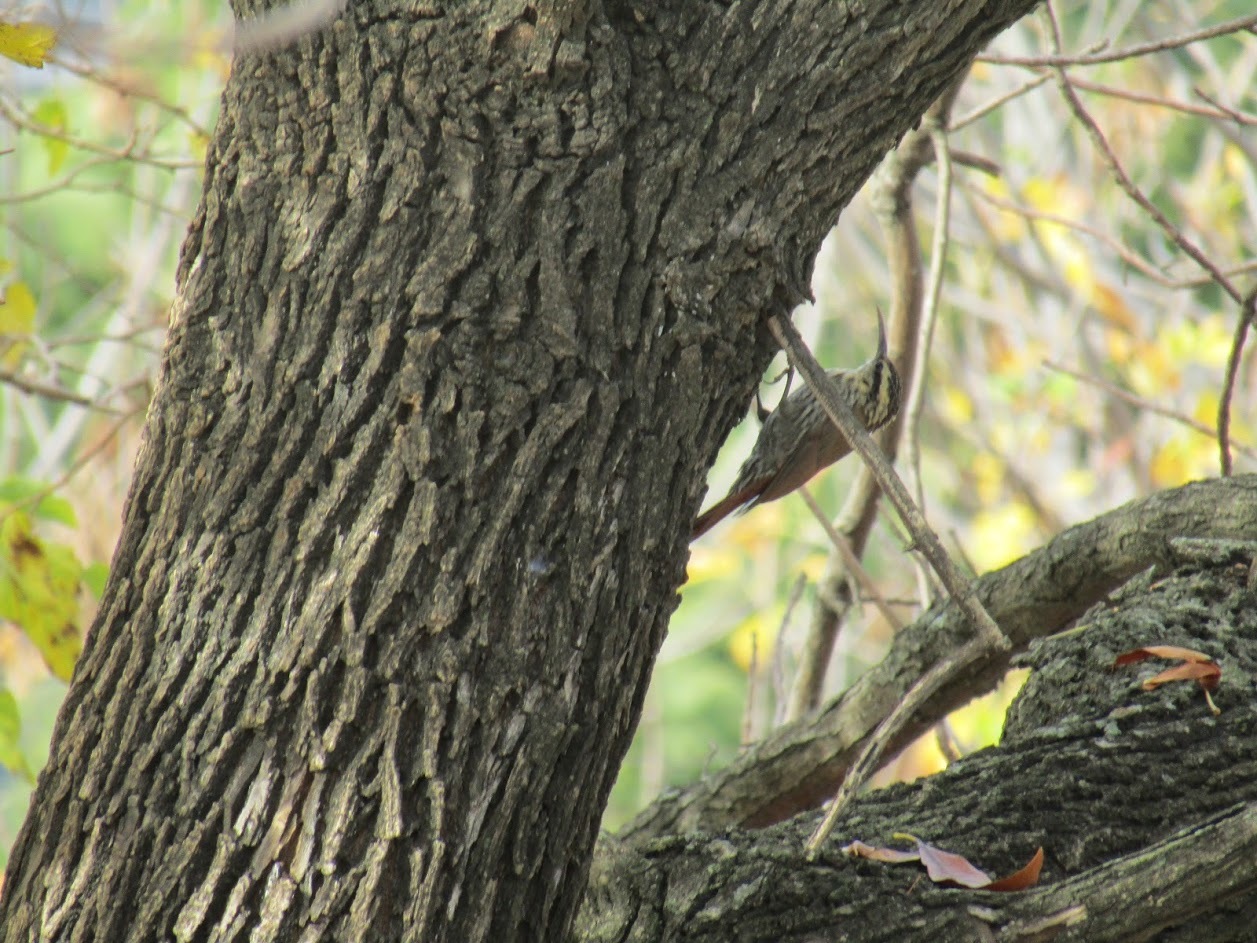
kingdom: Animalia
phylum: Chordata
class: Aves
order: Passeriformes
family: Furnariidae
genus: Lepidocolaptes
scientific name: Lepidocolaptes angustirostris
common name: Narrow-billed woodcreeper
